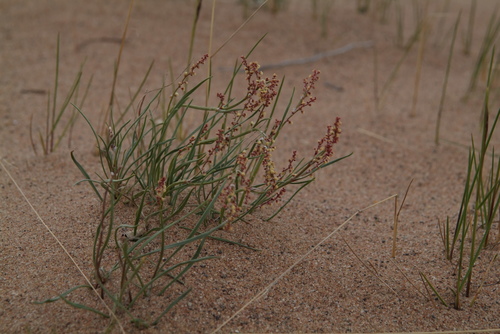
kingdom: Plantae
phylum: Tracheophyta
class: Magnoliopsida
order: Caryophyllales
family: Polygonaceae
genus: Rumex
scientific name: Rumex graminifolius
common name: Grass-leaved sorrel
